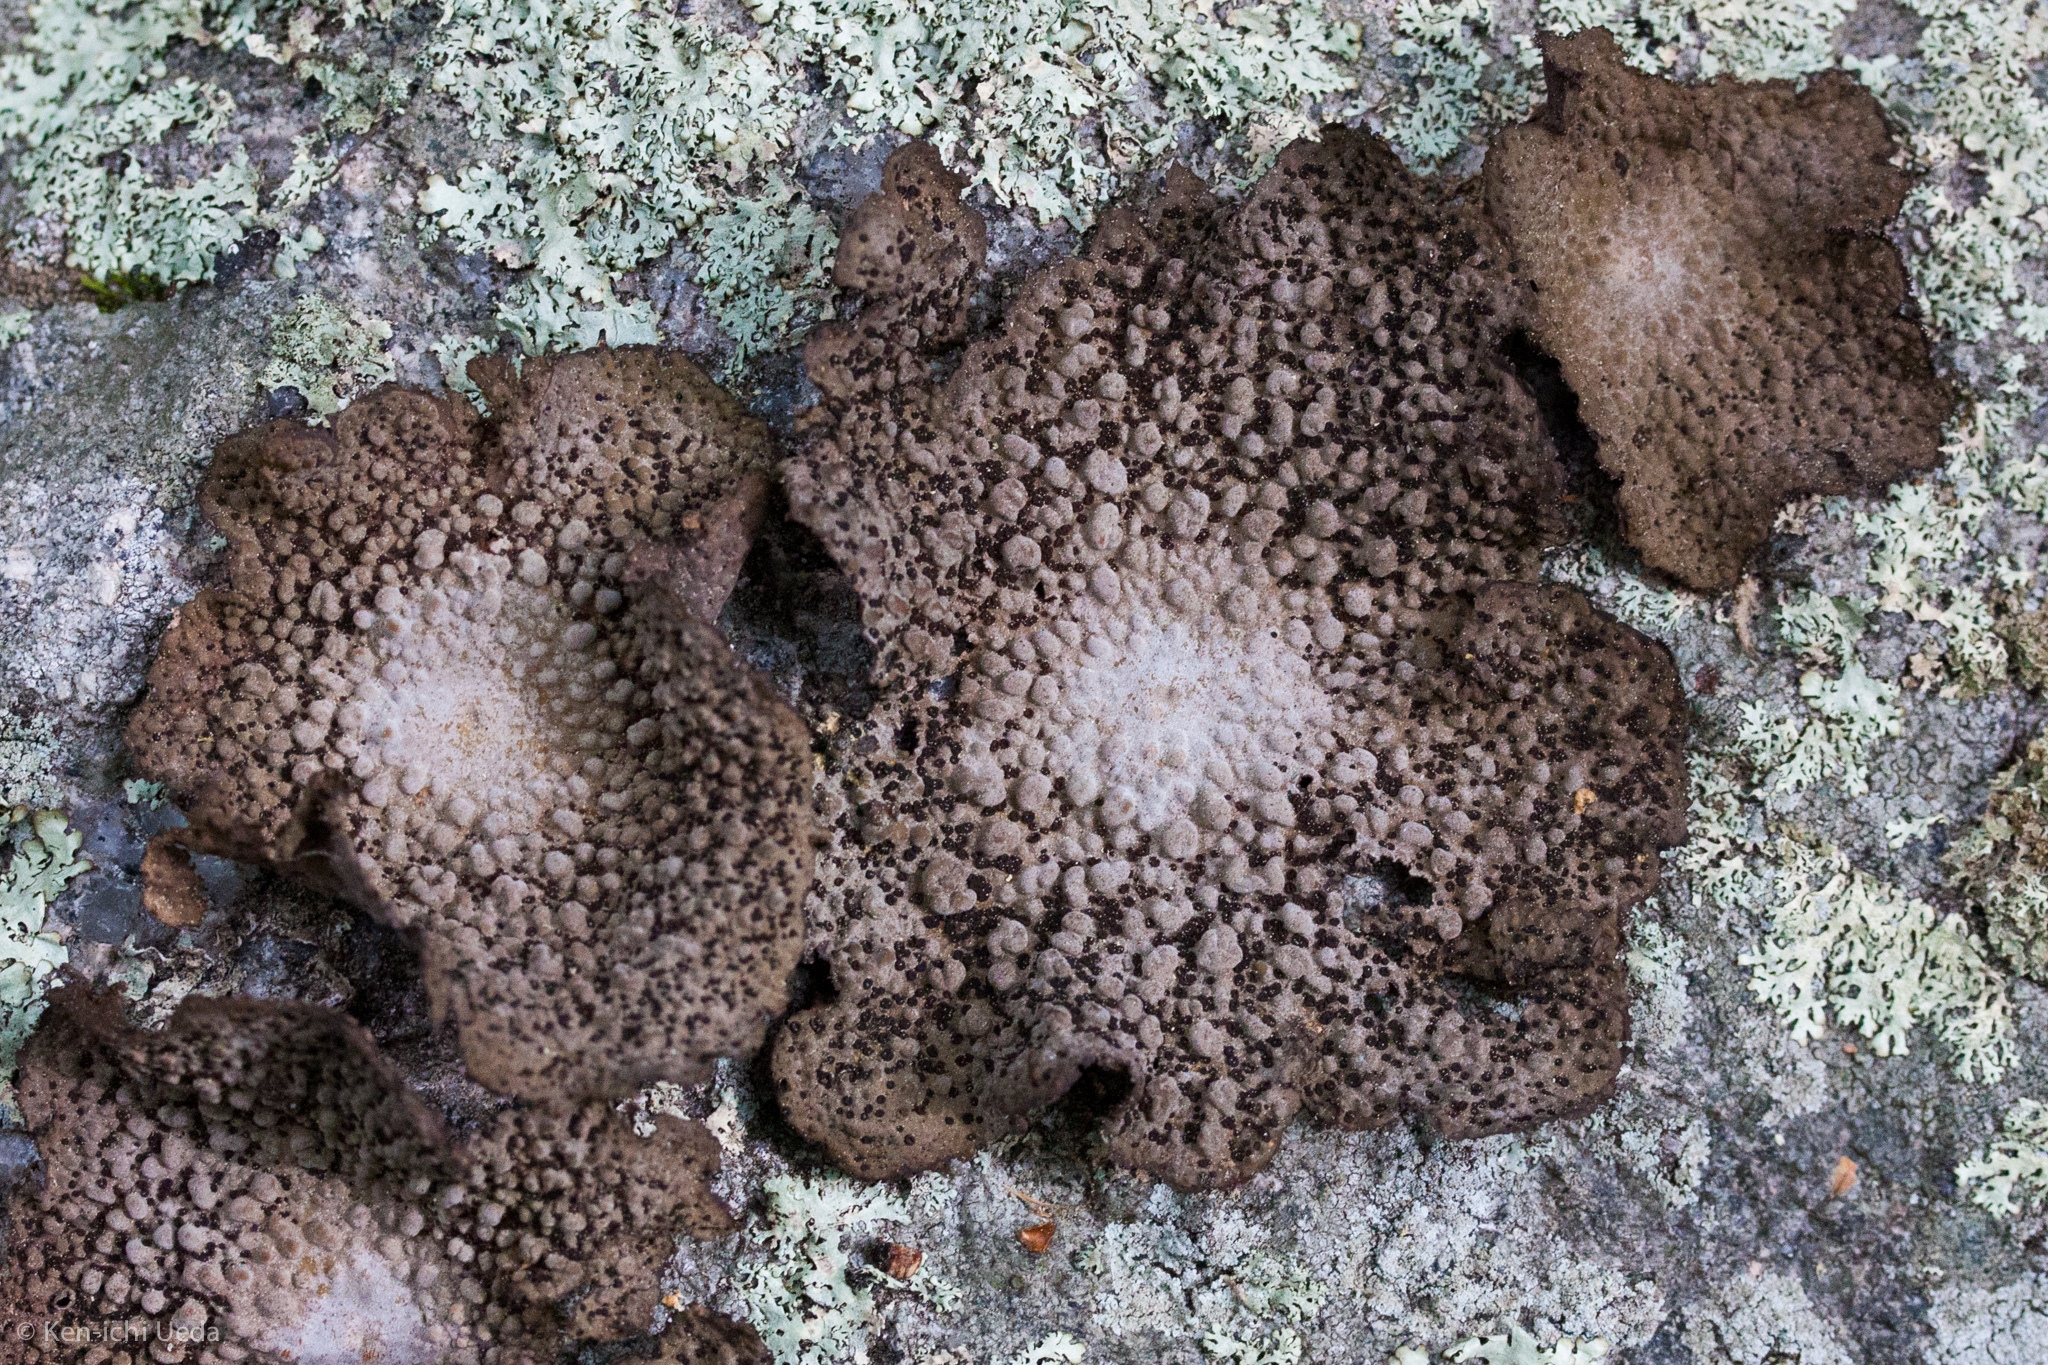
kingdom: Fungi
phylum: Ascomycota
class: Lecanoromycetes
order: Umbilicariales
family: Umbilicariaceae
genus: Lasallia
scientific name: Lasallia papulosa
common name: Common toadskin lichen
